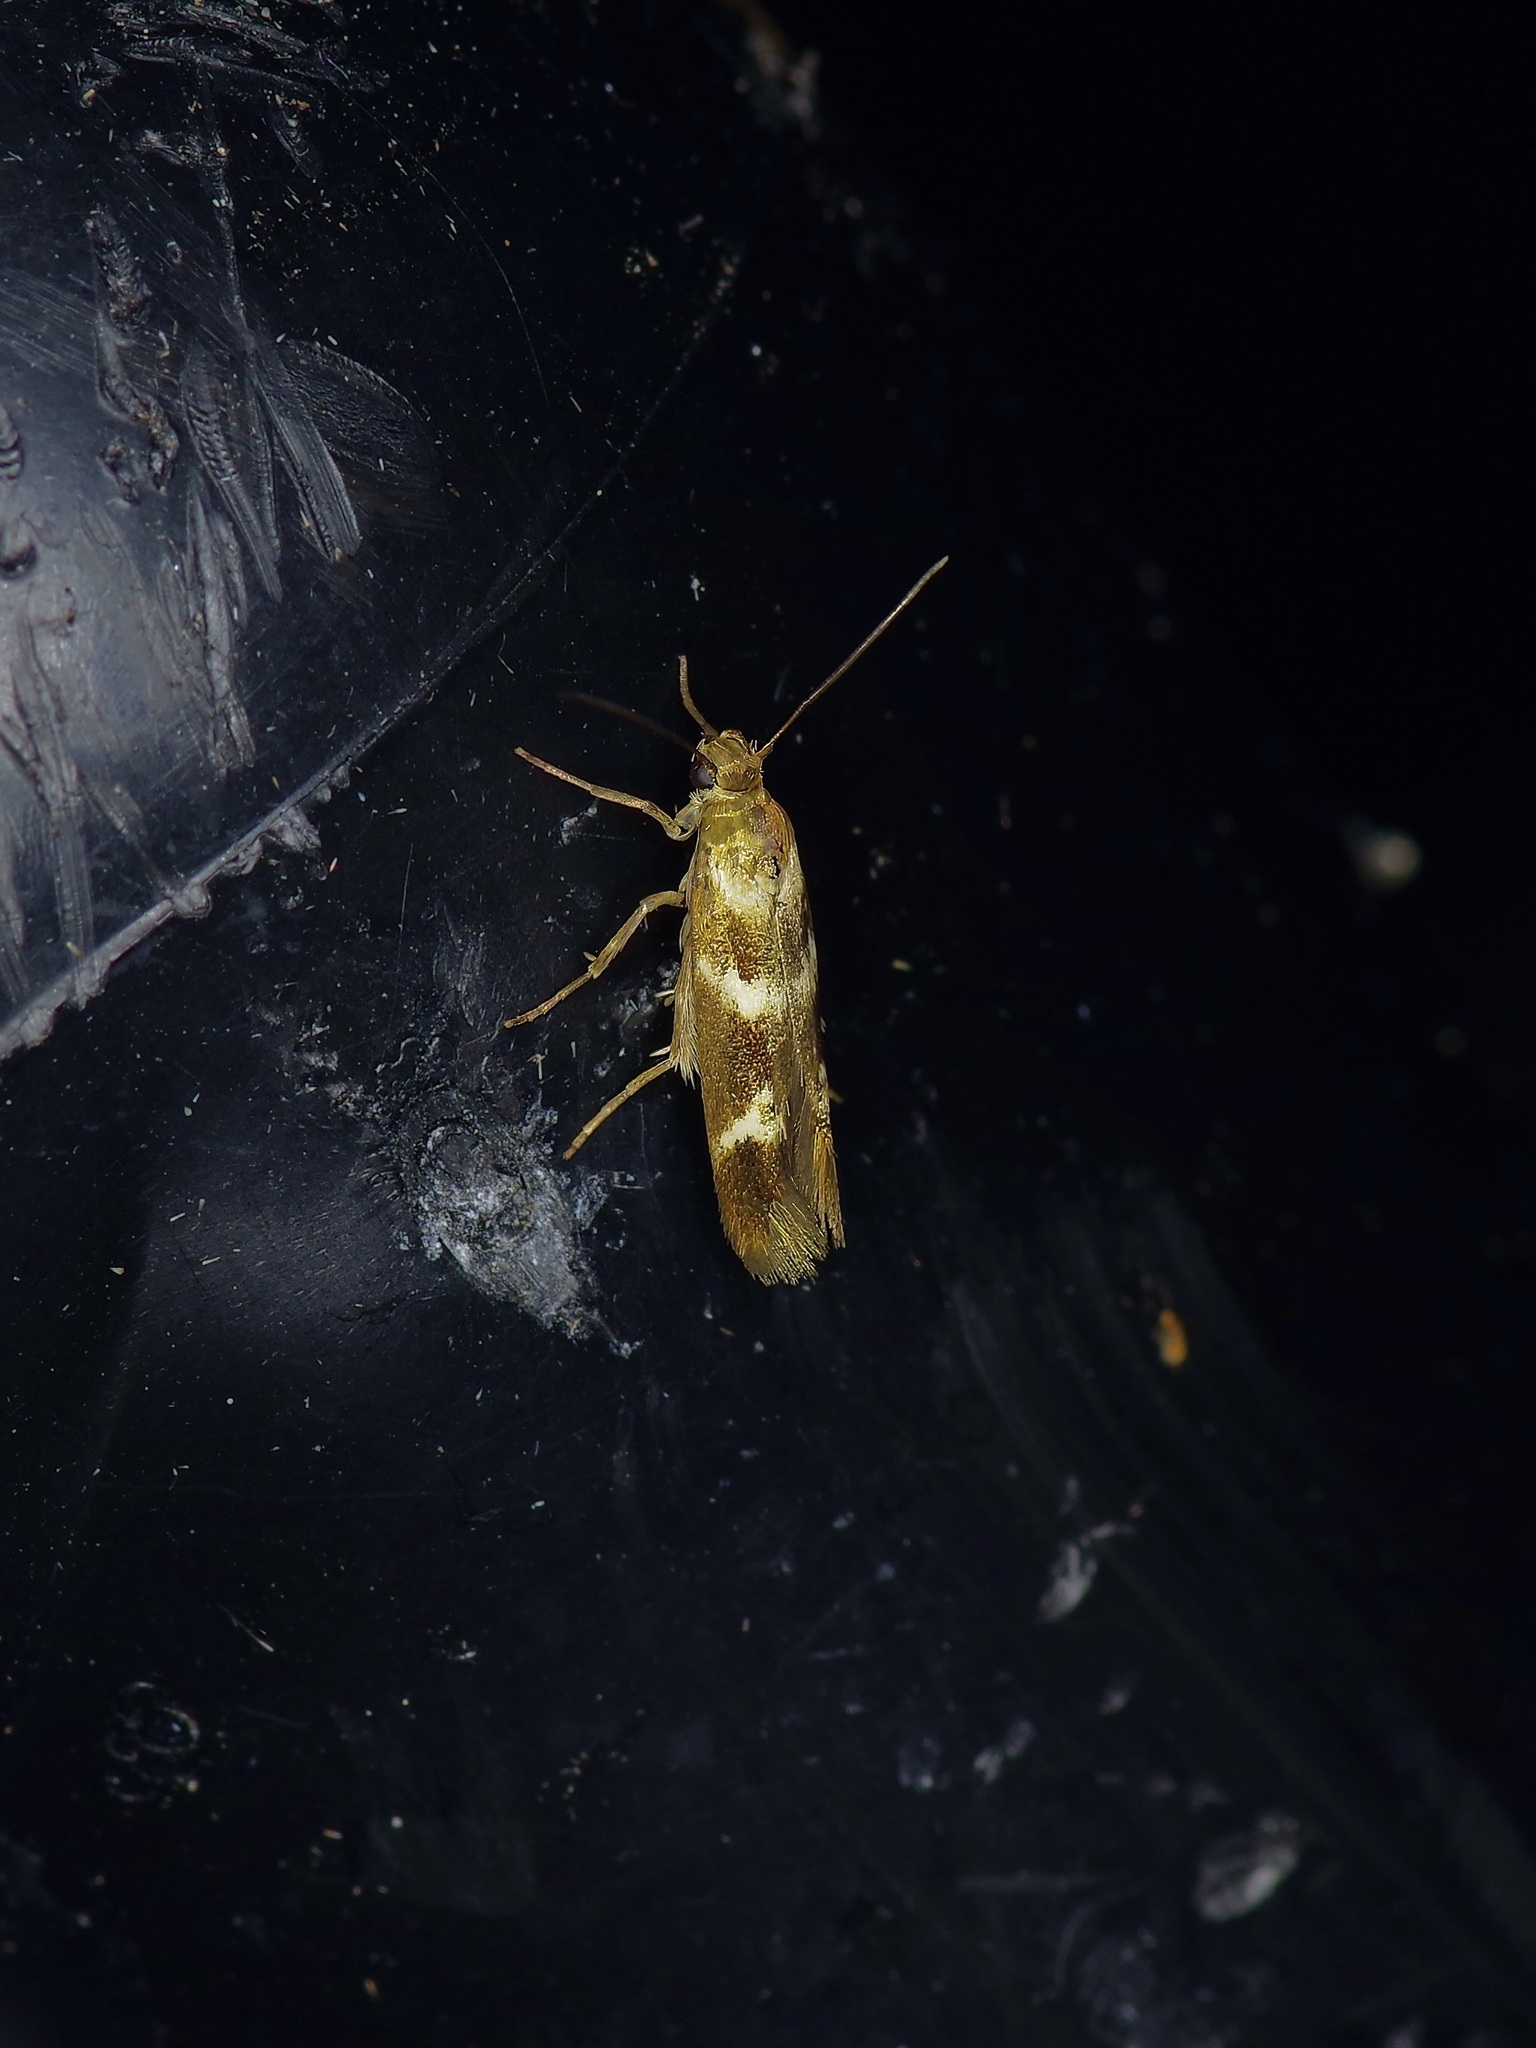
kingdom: Animalia
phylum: Arthropoda
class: Insecta
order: Lepidoptera
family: Scythrididae
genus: Scythris
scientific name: Scythris trivinctella
